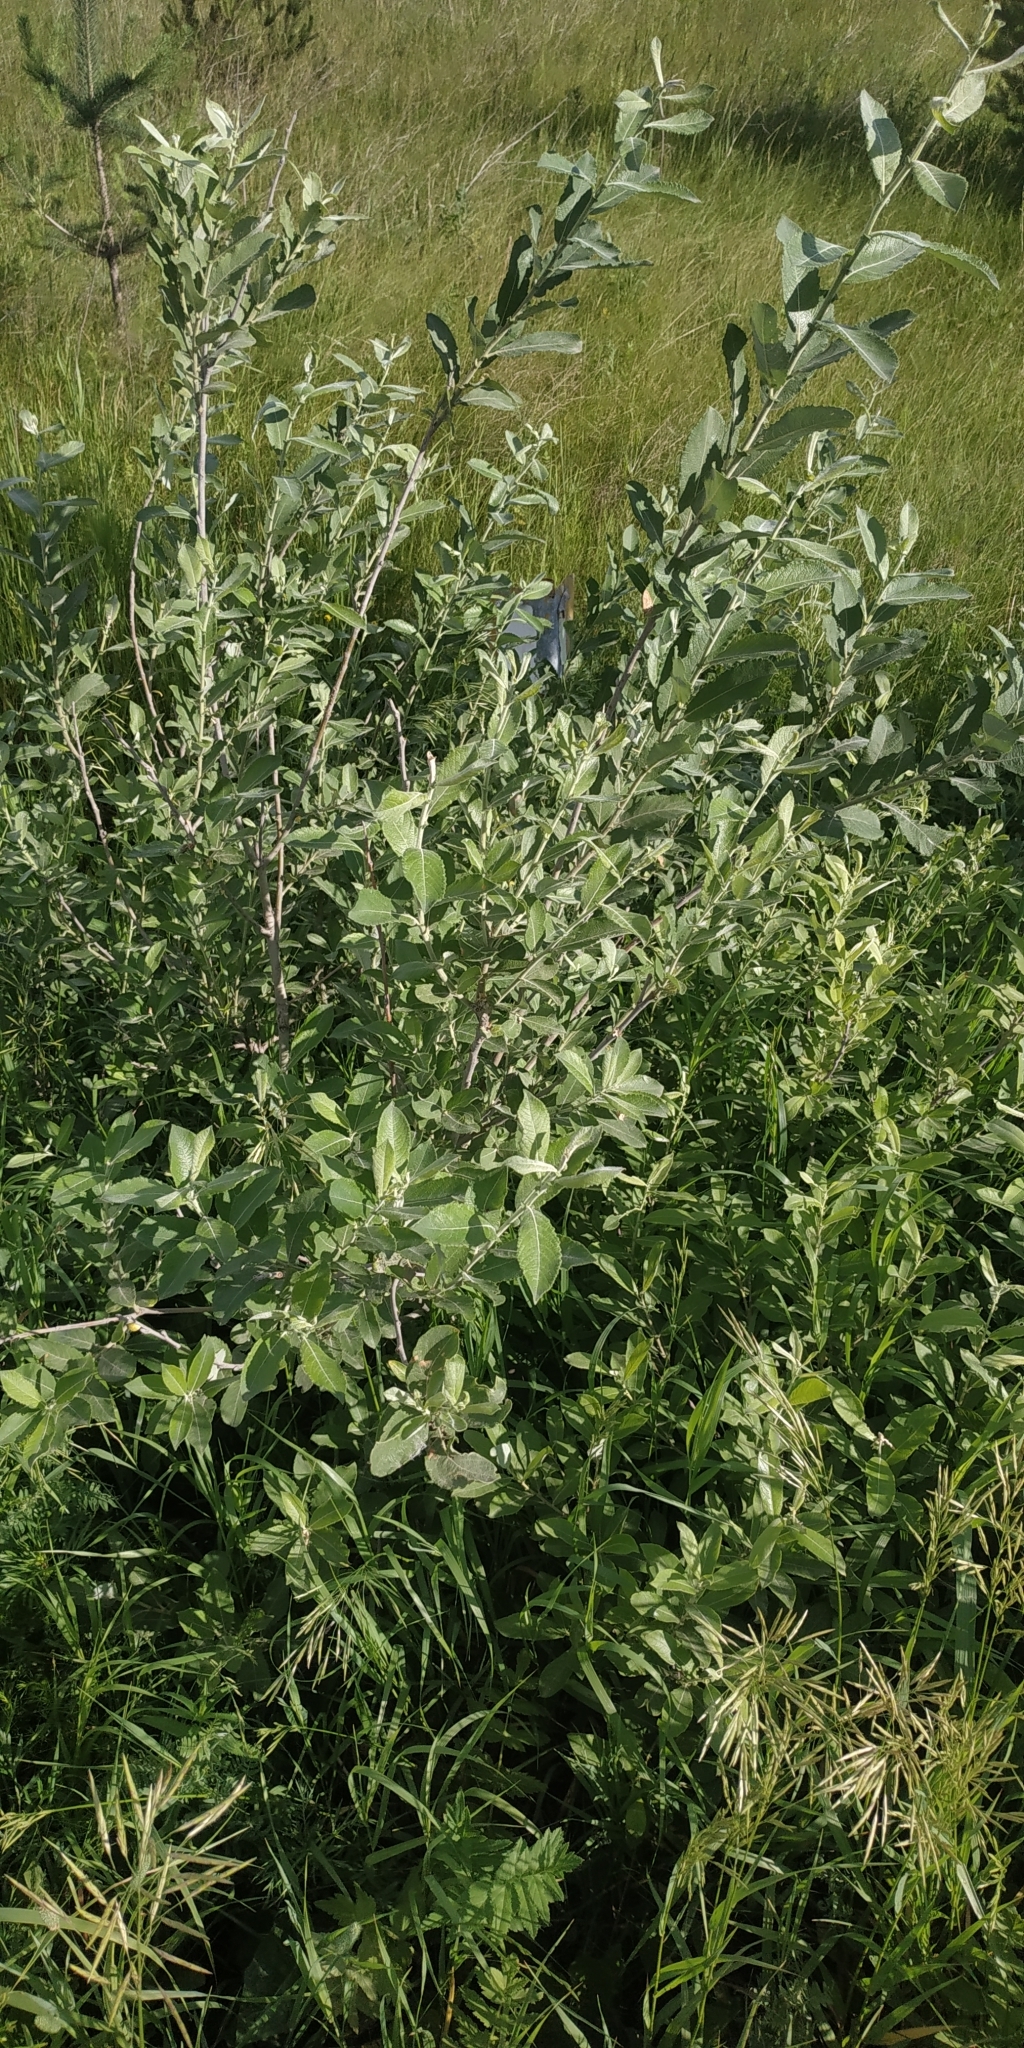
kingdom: Plantae
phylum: Tracheophyta
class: Magnoliopsida
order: Malpighiales
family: Salicaceae
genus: Salix
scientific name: Salix cinerea
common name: Common sallow
